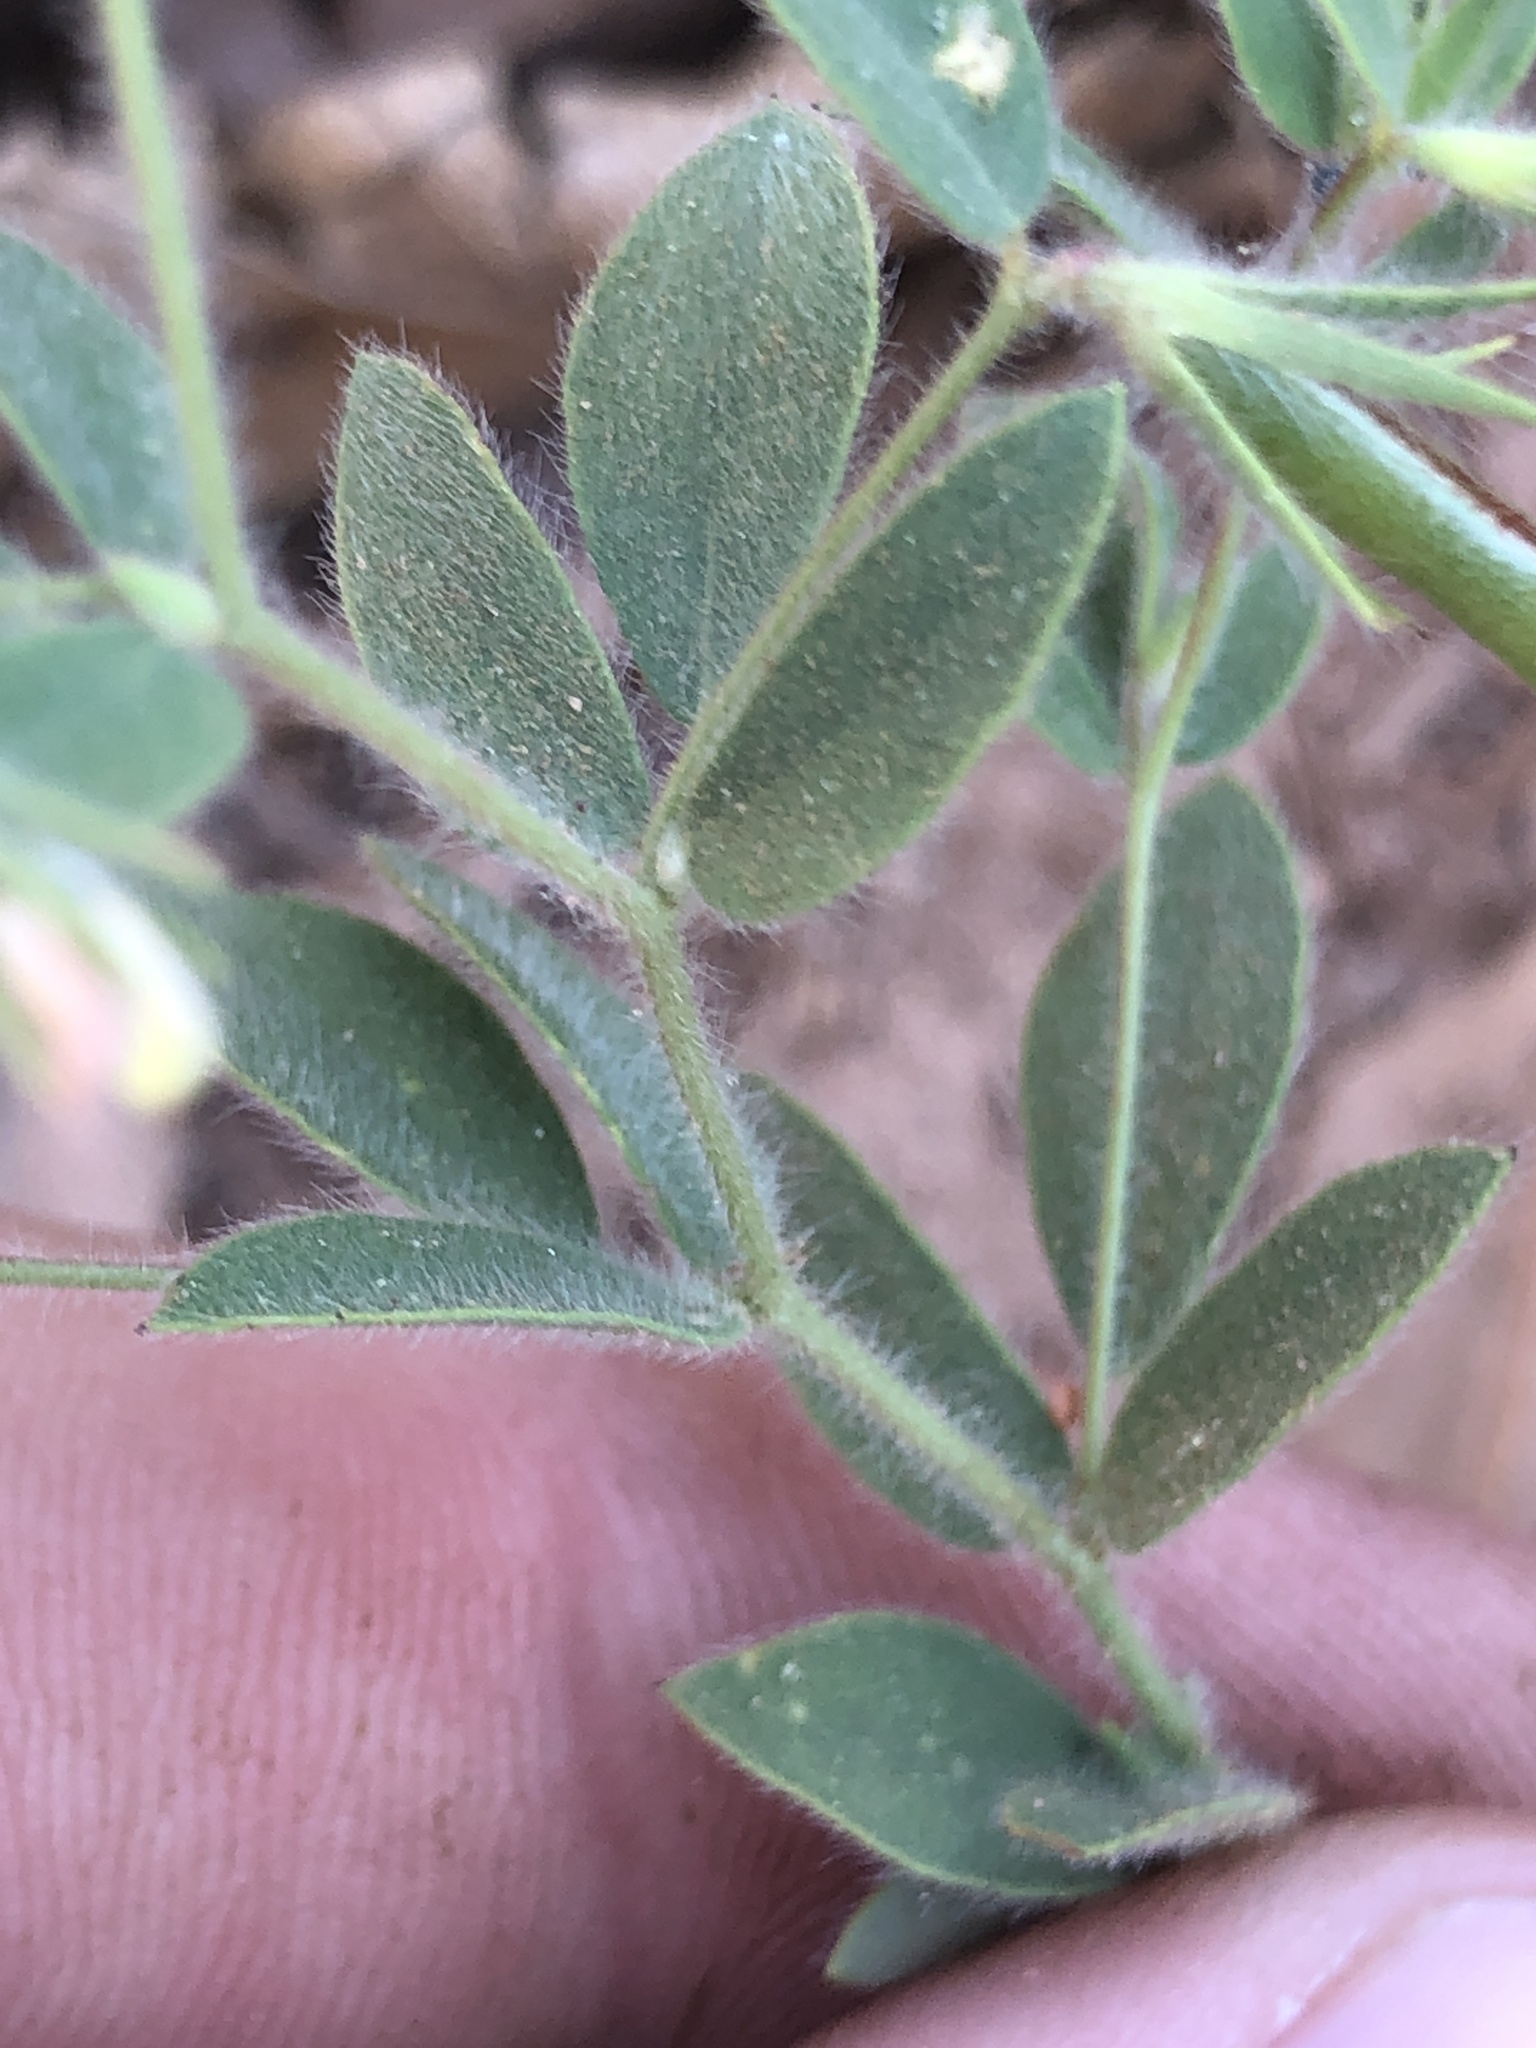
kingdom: Plantae
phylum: Tracheophyta
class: Magnoliopsida
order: Fabales
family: Fabaceae
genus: Acmispon
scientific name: Acmispon americanus
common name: American bird's-foot trefoil
